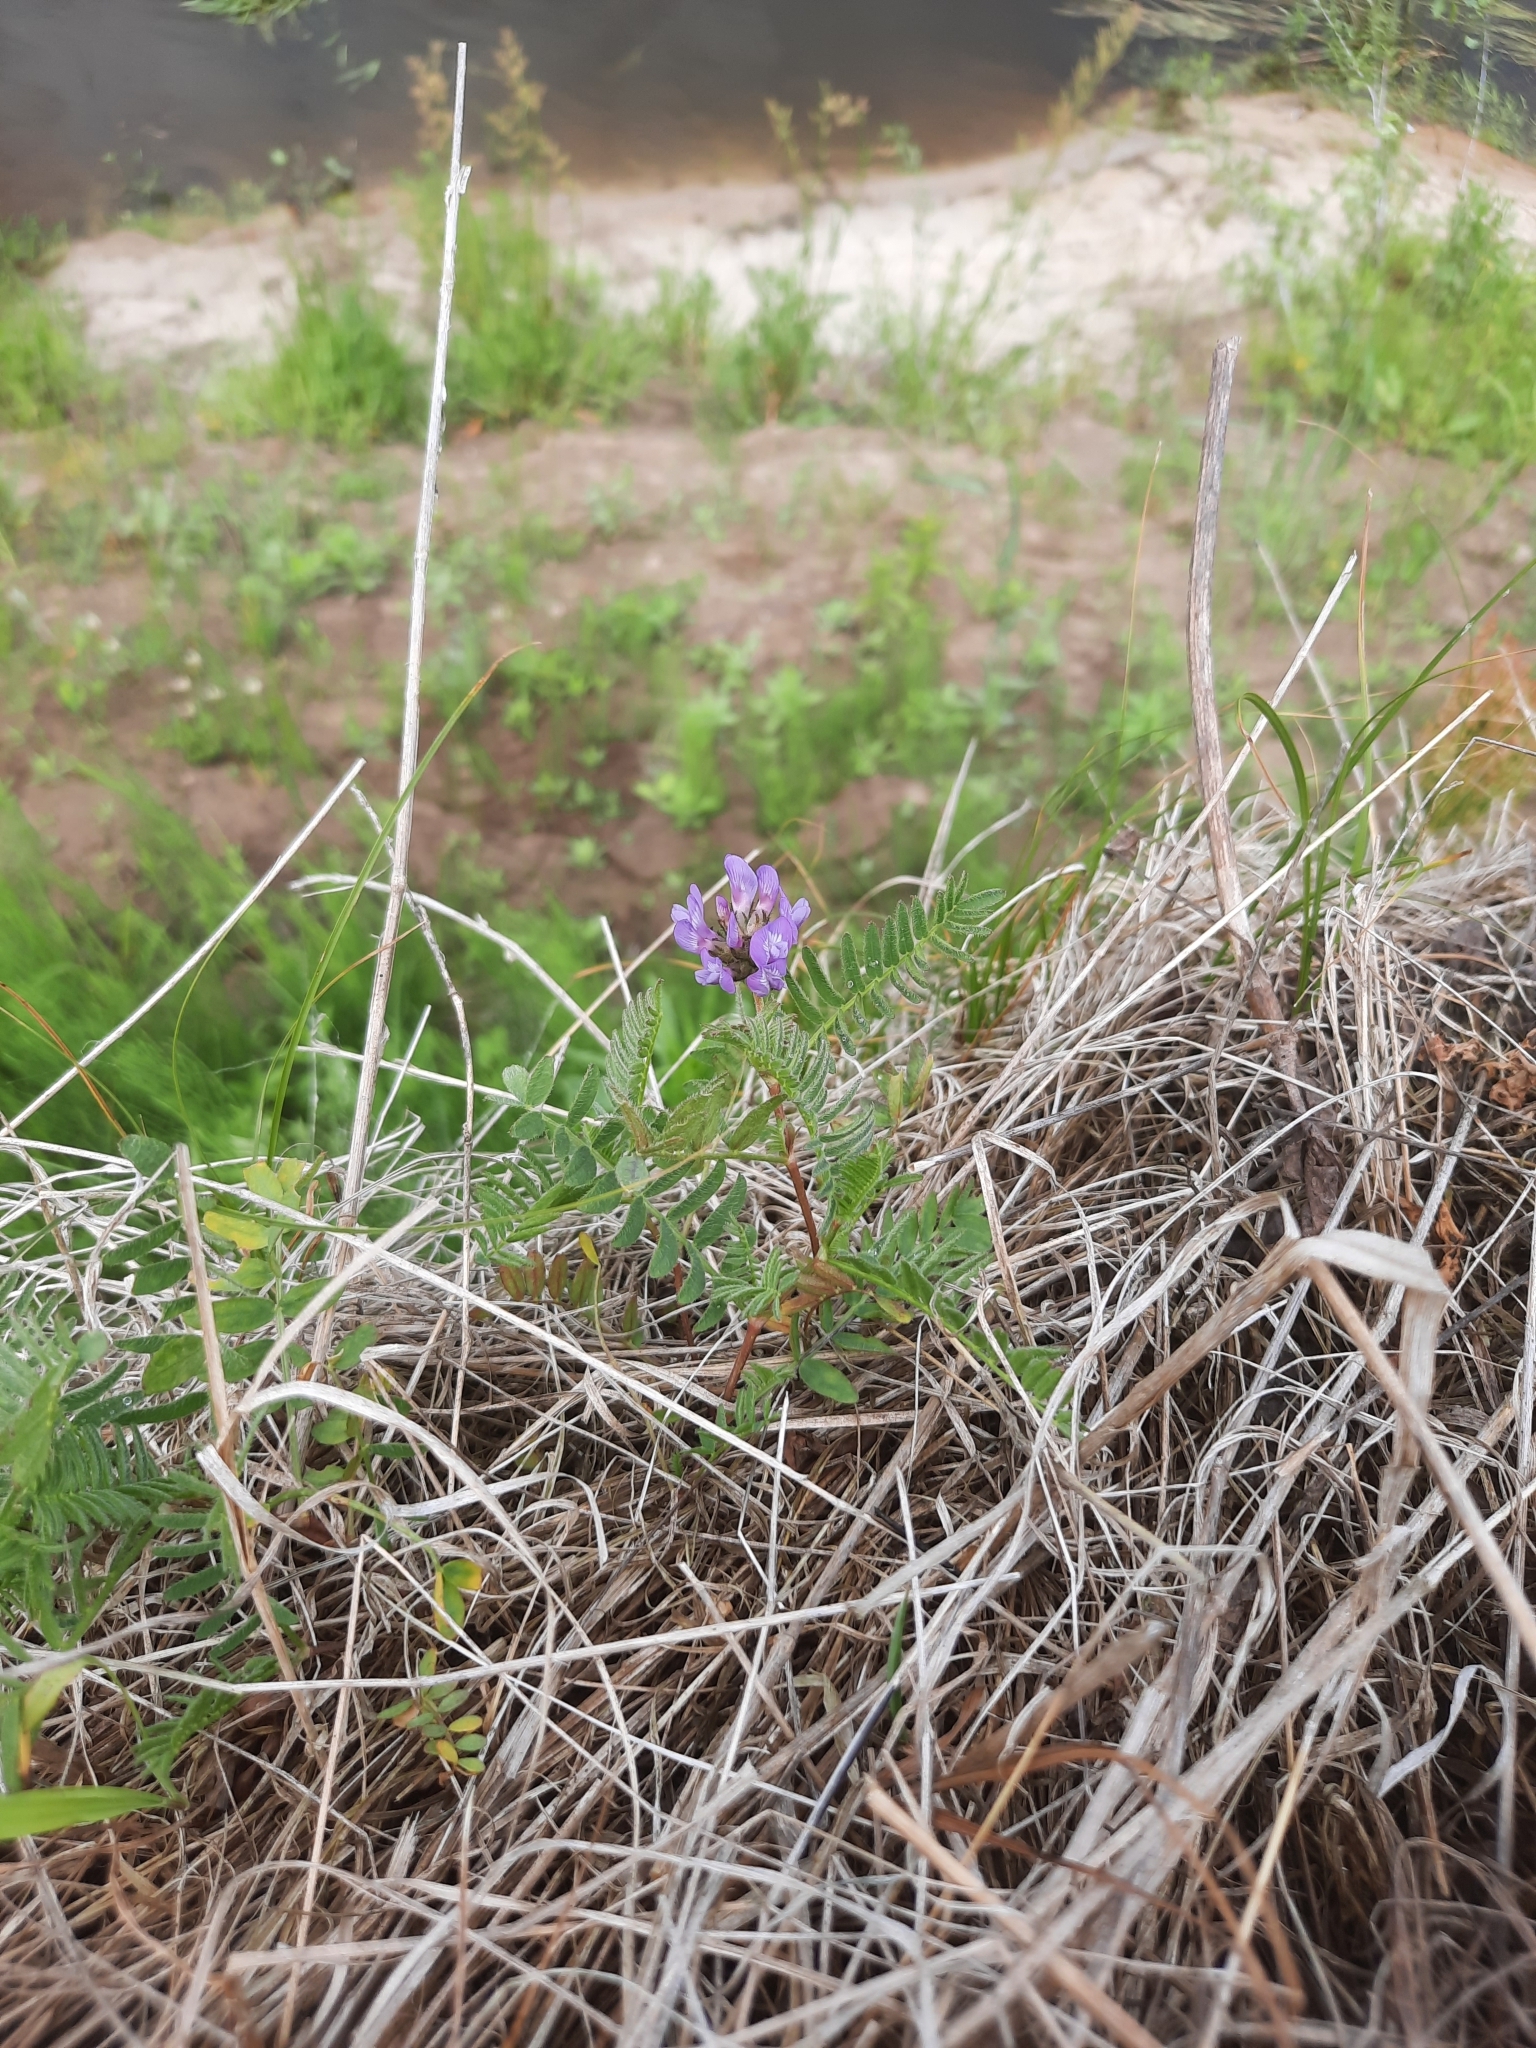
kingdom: Plantae
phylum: Tracheophyta
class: Magnoliopsida
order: Fabales
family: Fabaceae
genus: Astragalus
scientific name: Astragalus danicus
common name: Purple milk-vetch
